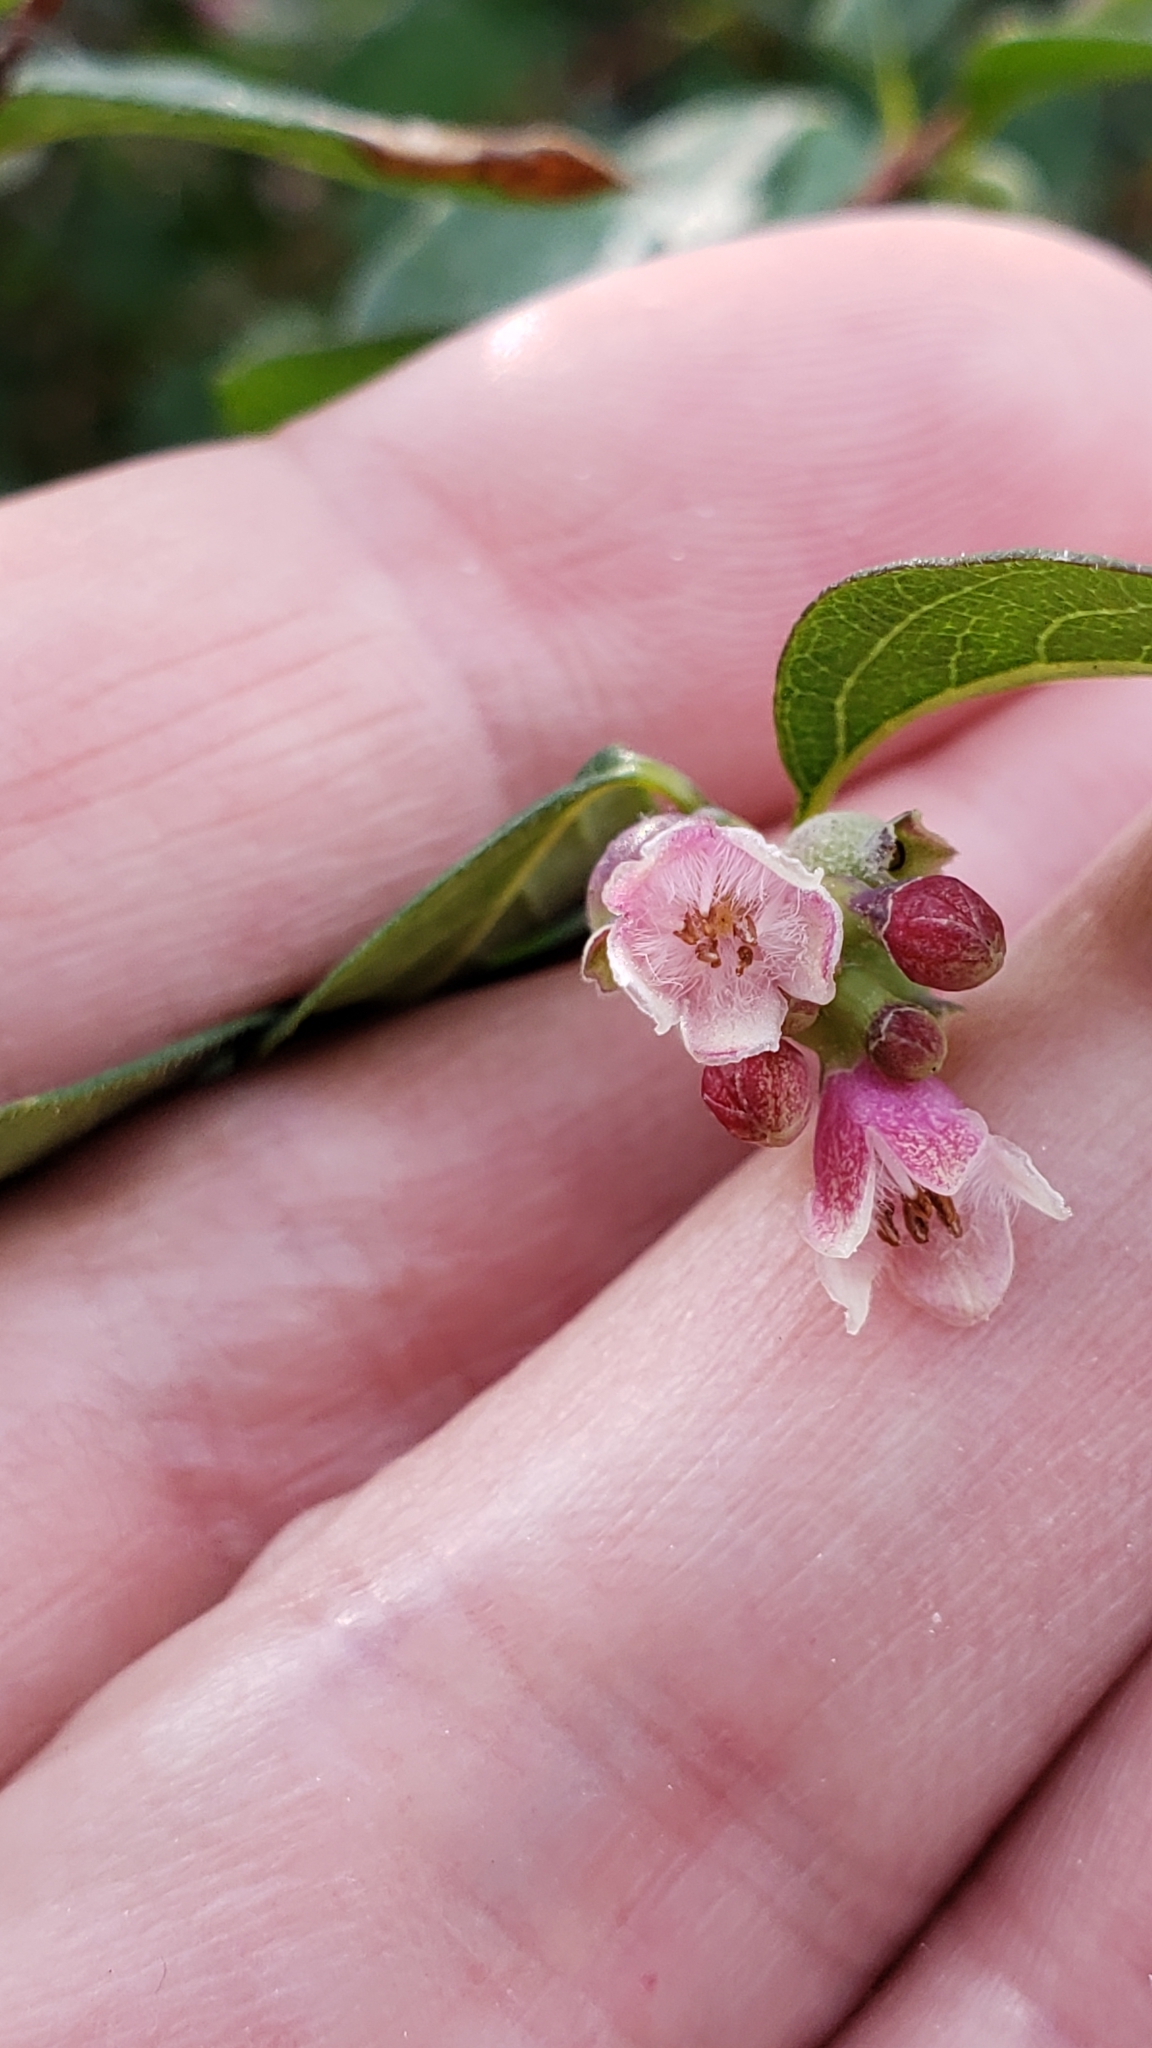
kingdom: Plantae
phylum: Tracheophyta
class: Magnoliopsida
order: Dipsacales
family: Caprifoliaceae
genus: Symphoricarpos
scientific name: Symphoricarpos albus
